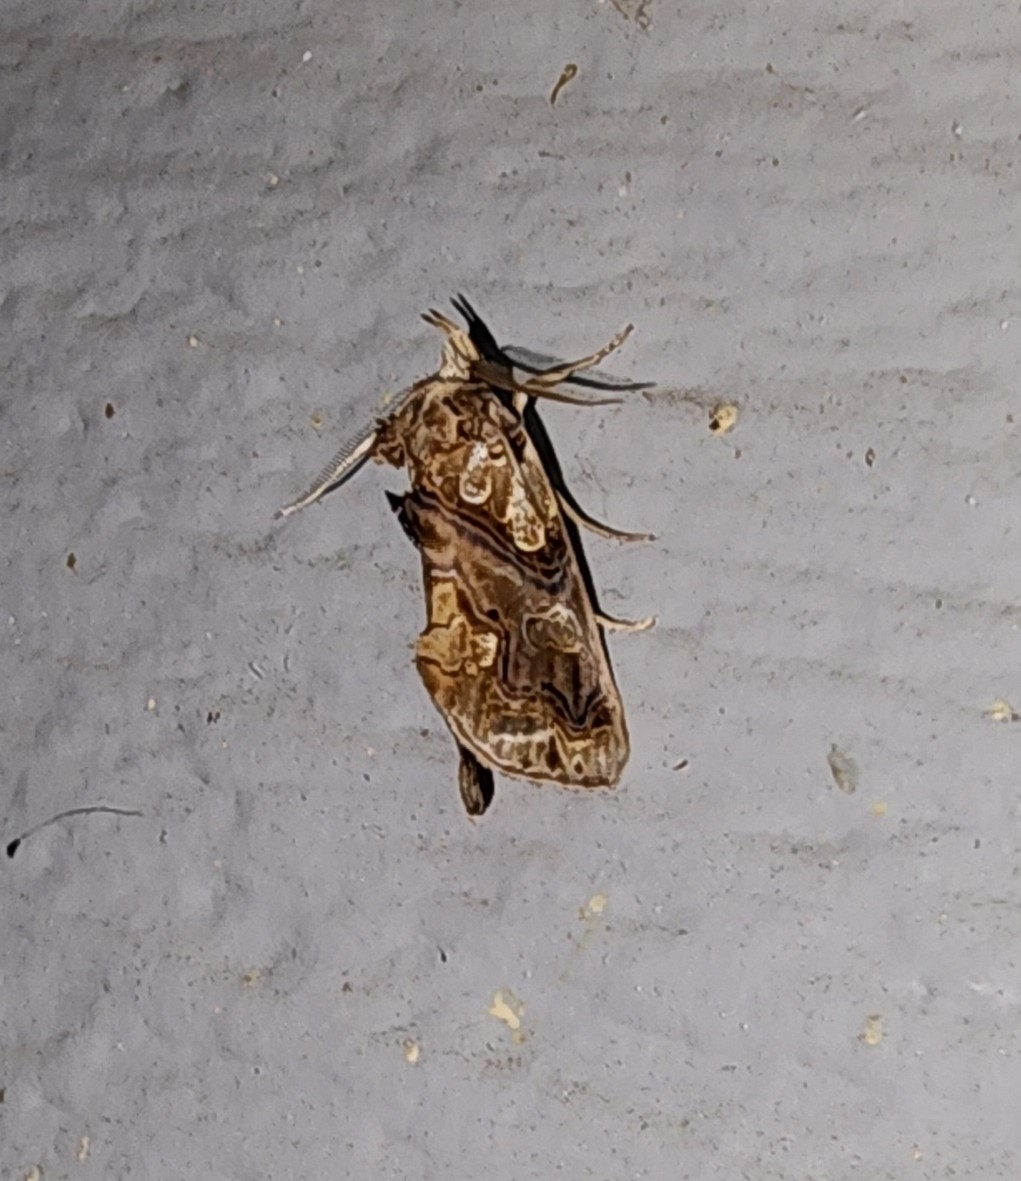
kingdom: Animalia
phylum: Arthropoda
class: Insecta
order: Lepidoptera
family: Erebidae
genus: Plusiodonta
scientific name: Plusiodonta compressipalpis
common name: Moonseed moth
